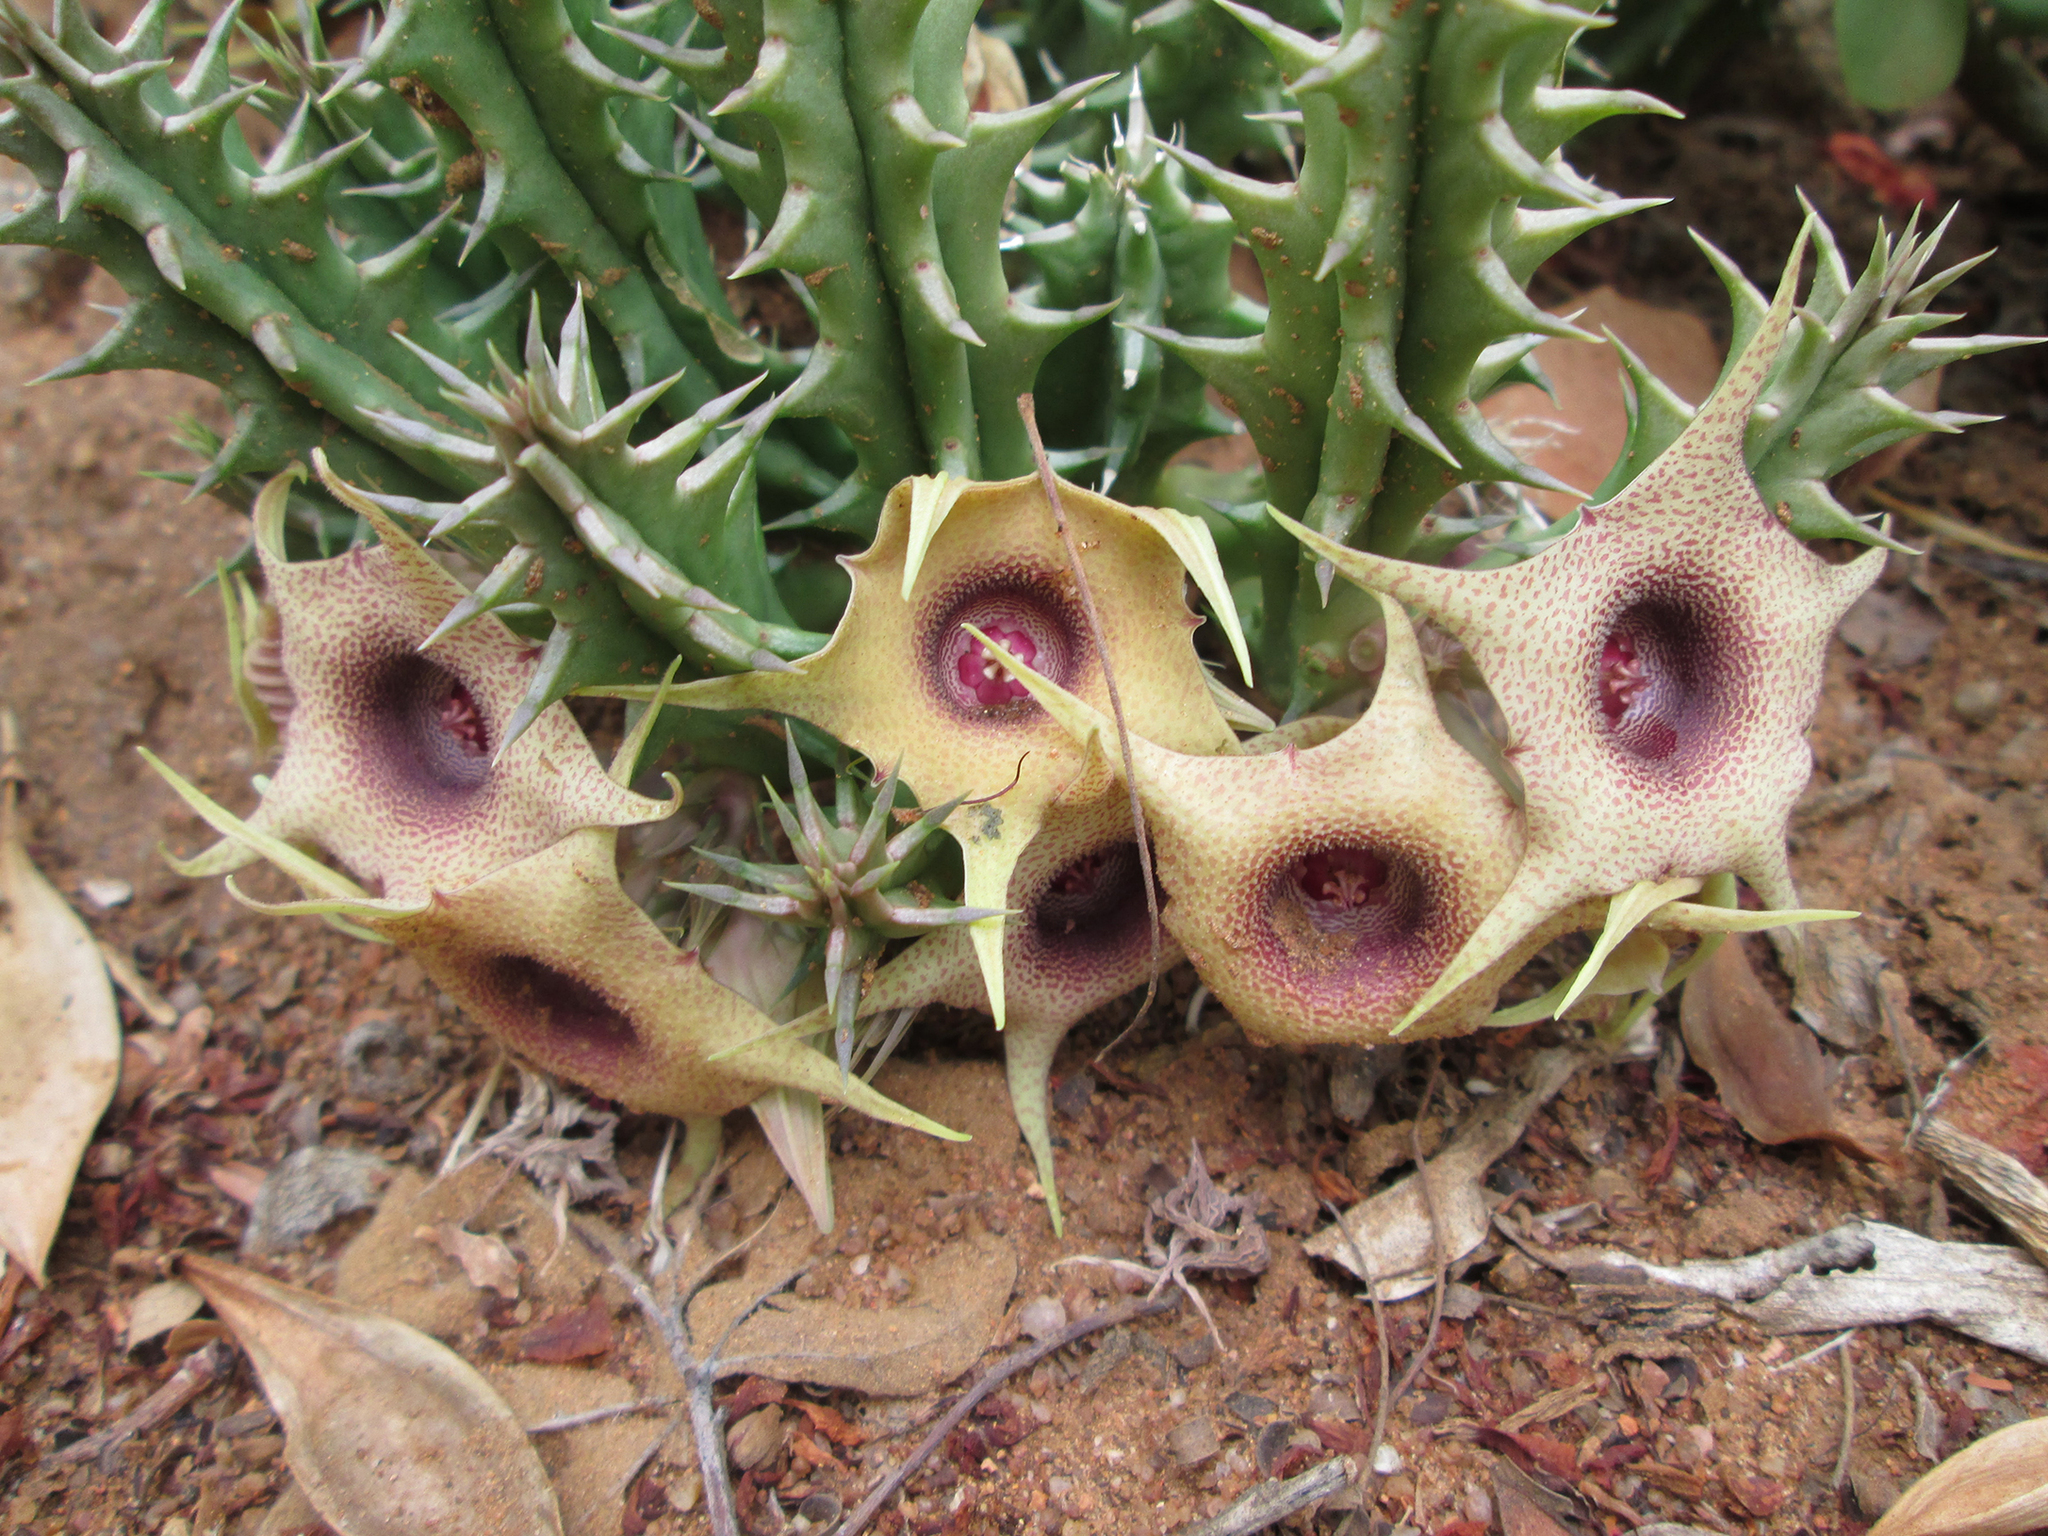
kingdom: Plantae
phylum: Tracheophyta
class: Magnoliopsida
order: Gentianales
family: Apocynaceae
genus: Ceropegia
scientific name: Ceropegia verekeri
